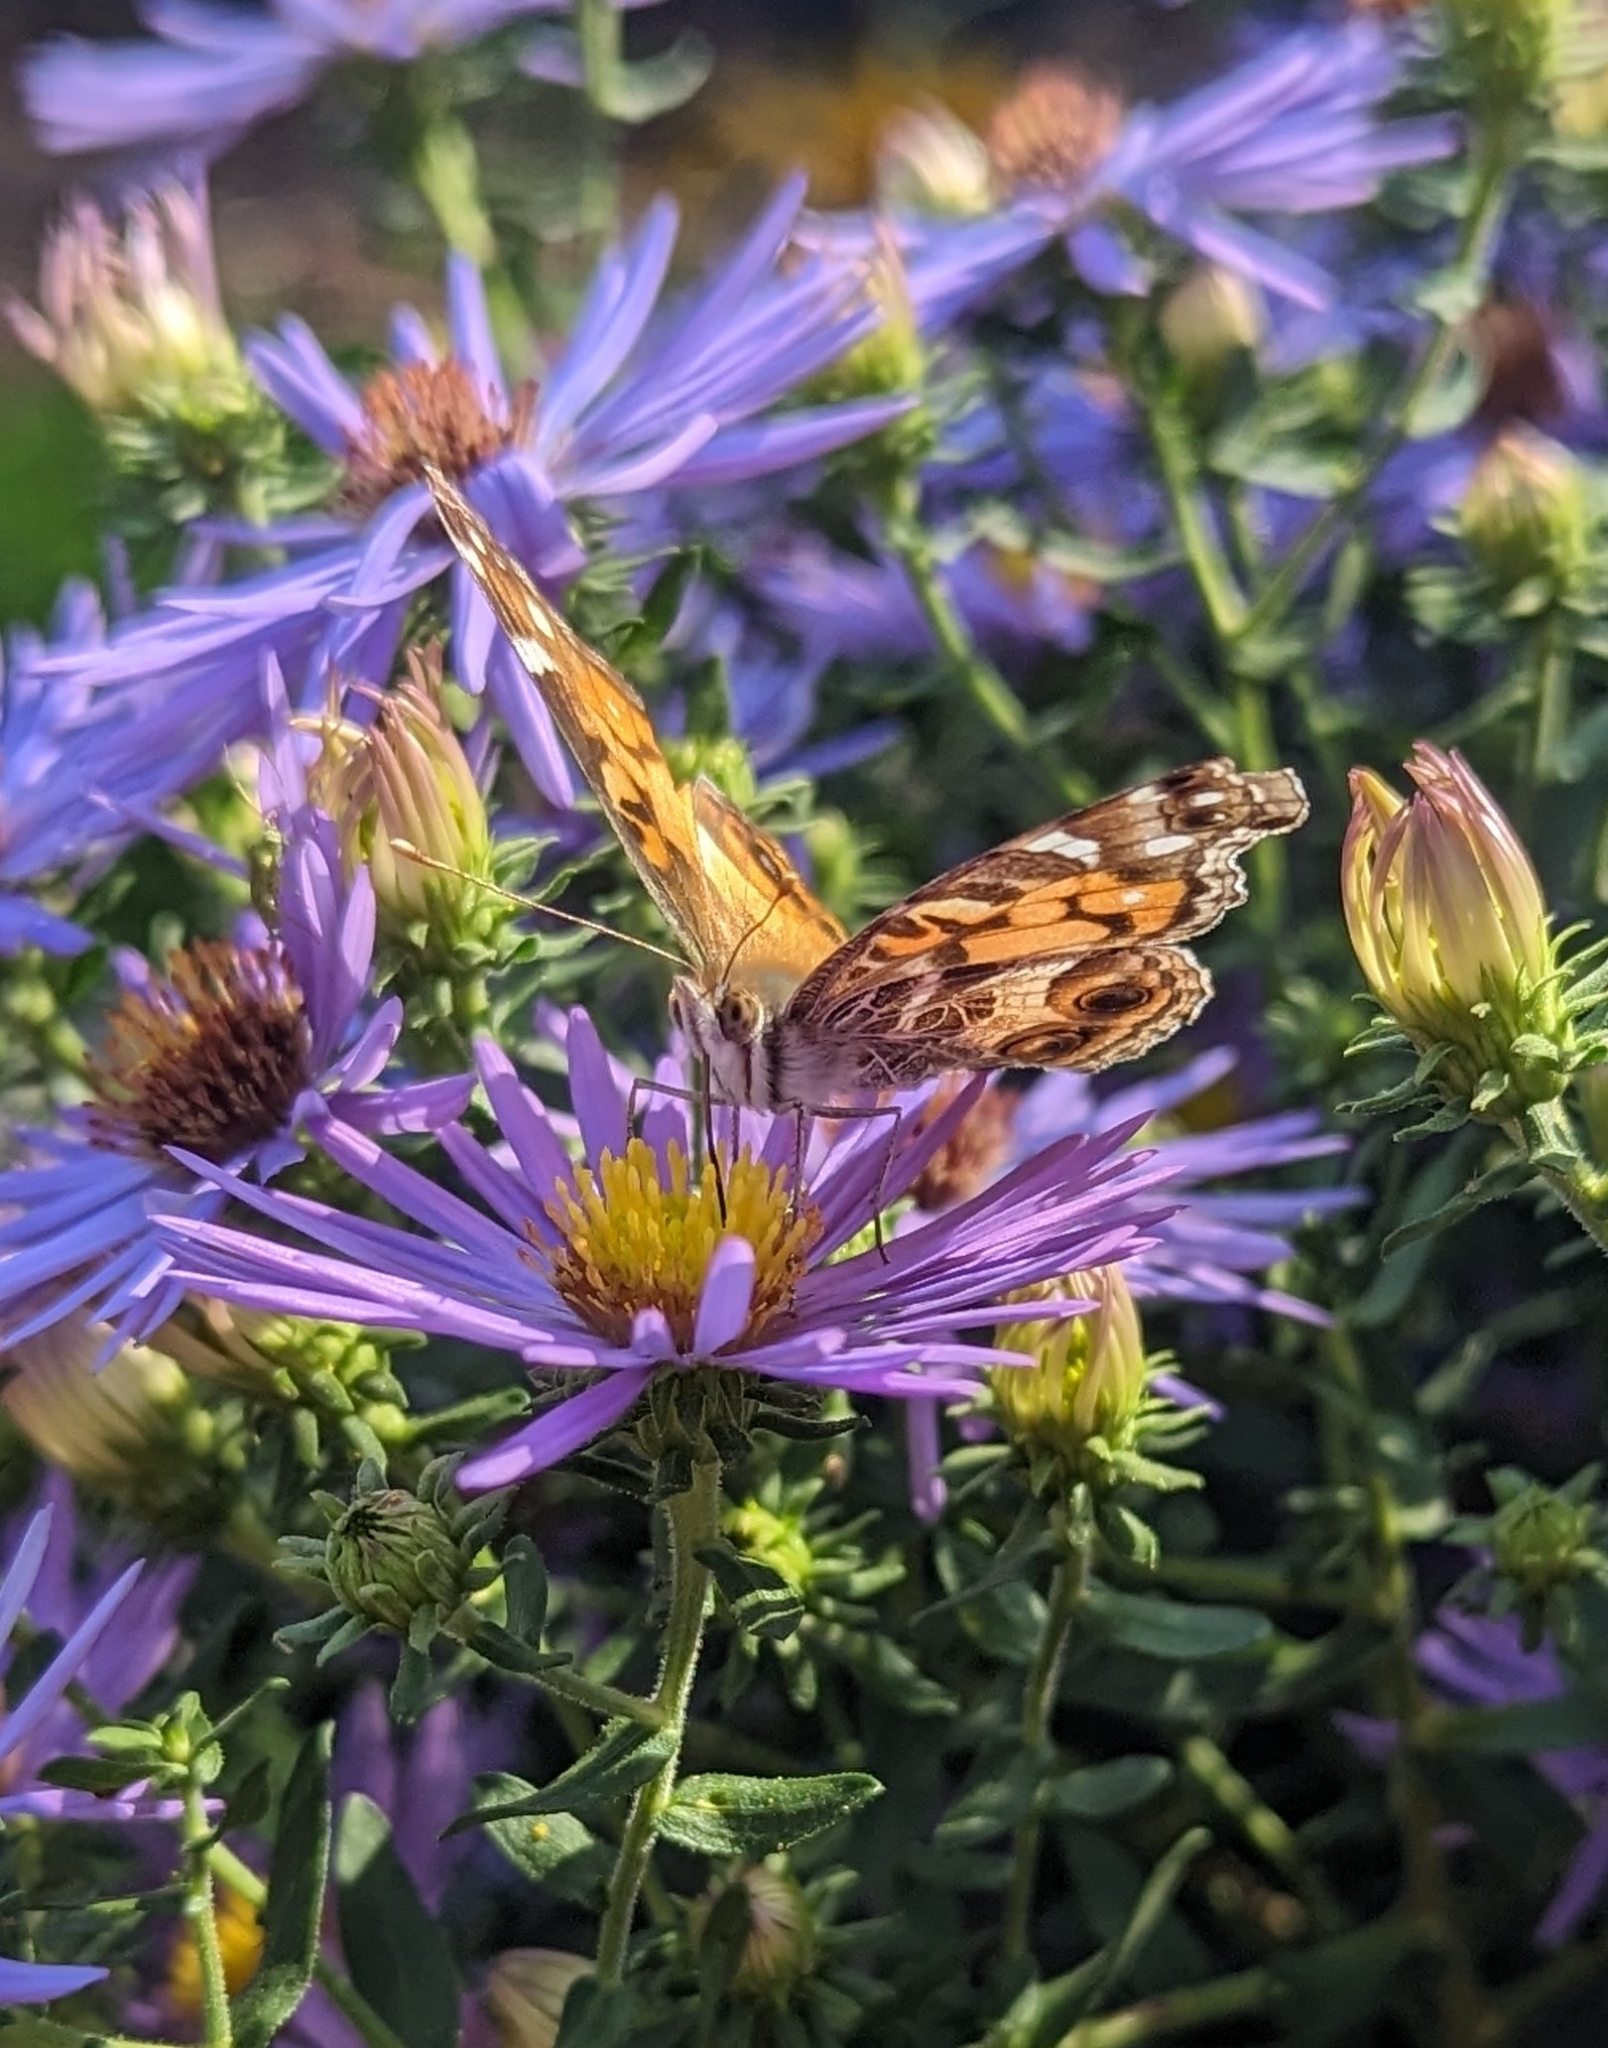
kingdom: Animalia
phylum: Arthropoda
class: Insecta
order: Lepidoptera
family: Nymphalidae
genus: Vanessa
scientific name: Vanessa virginiensis
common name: American lady
